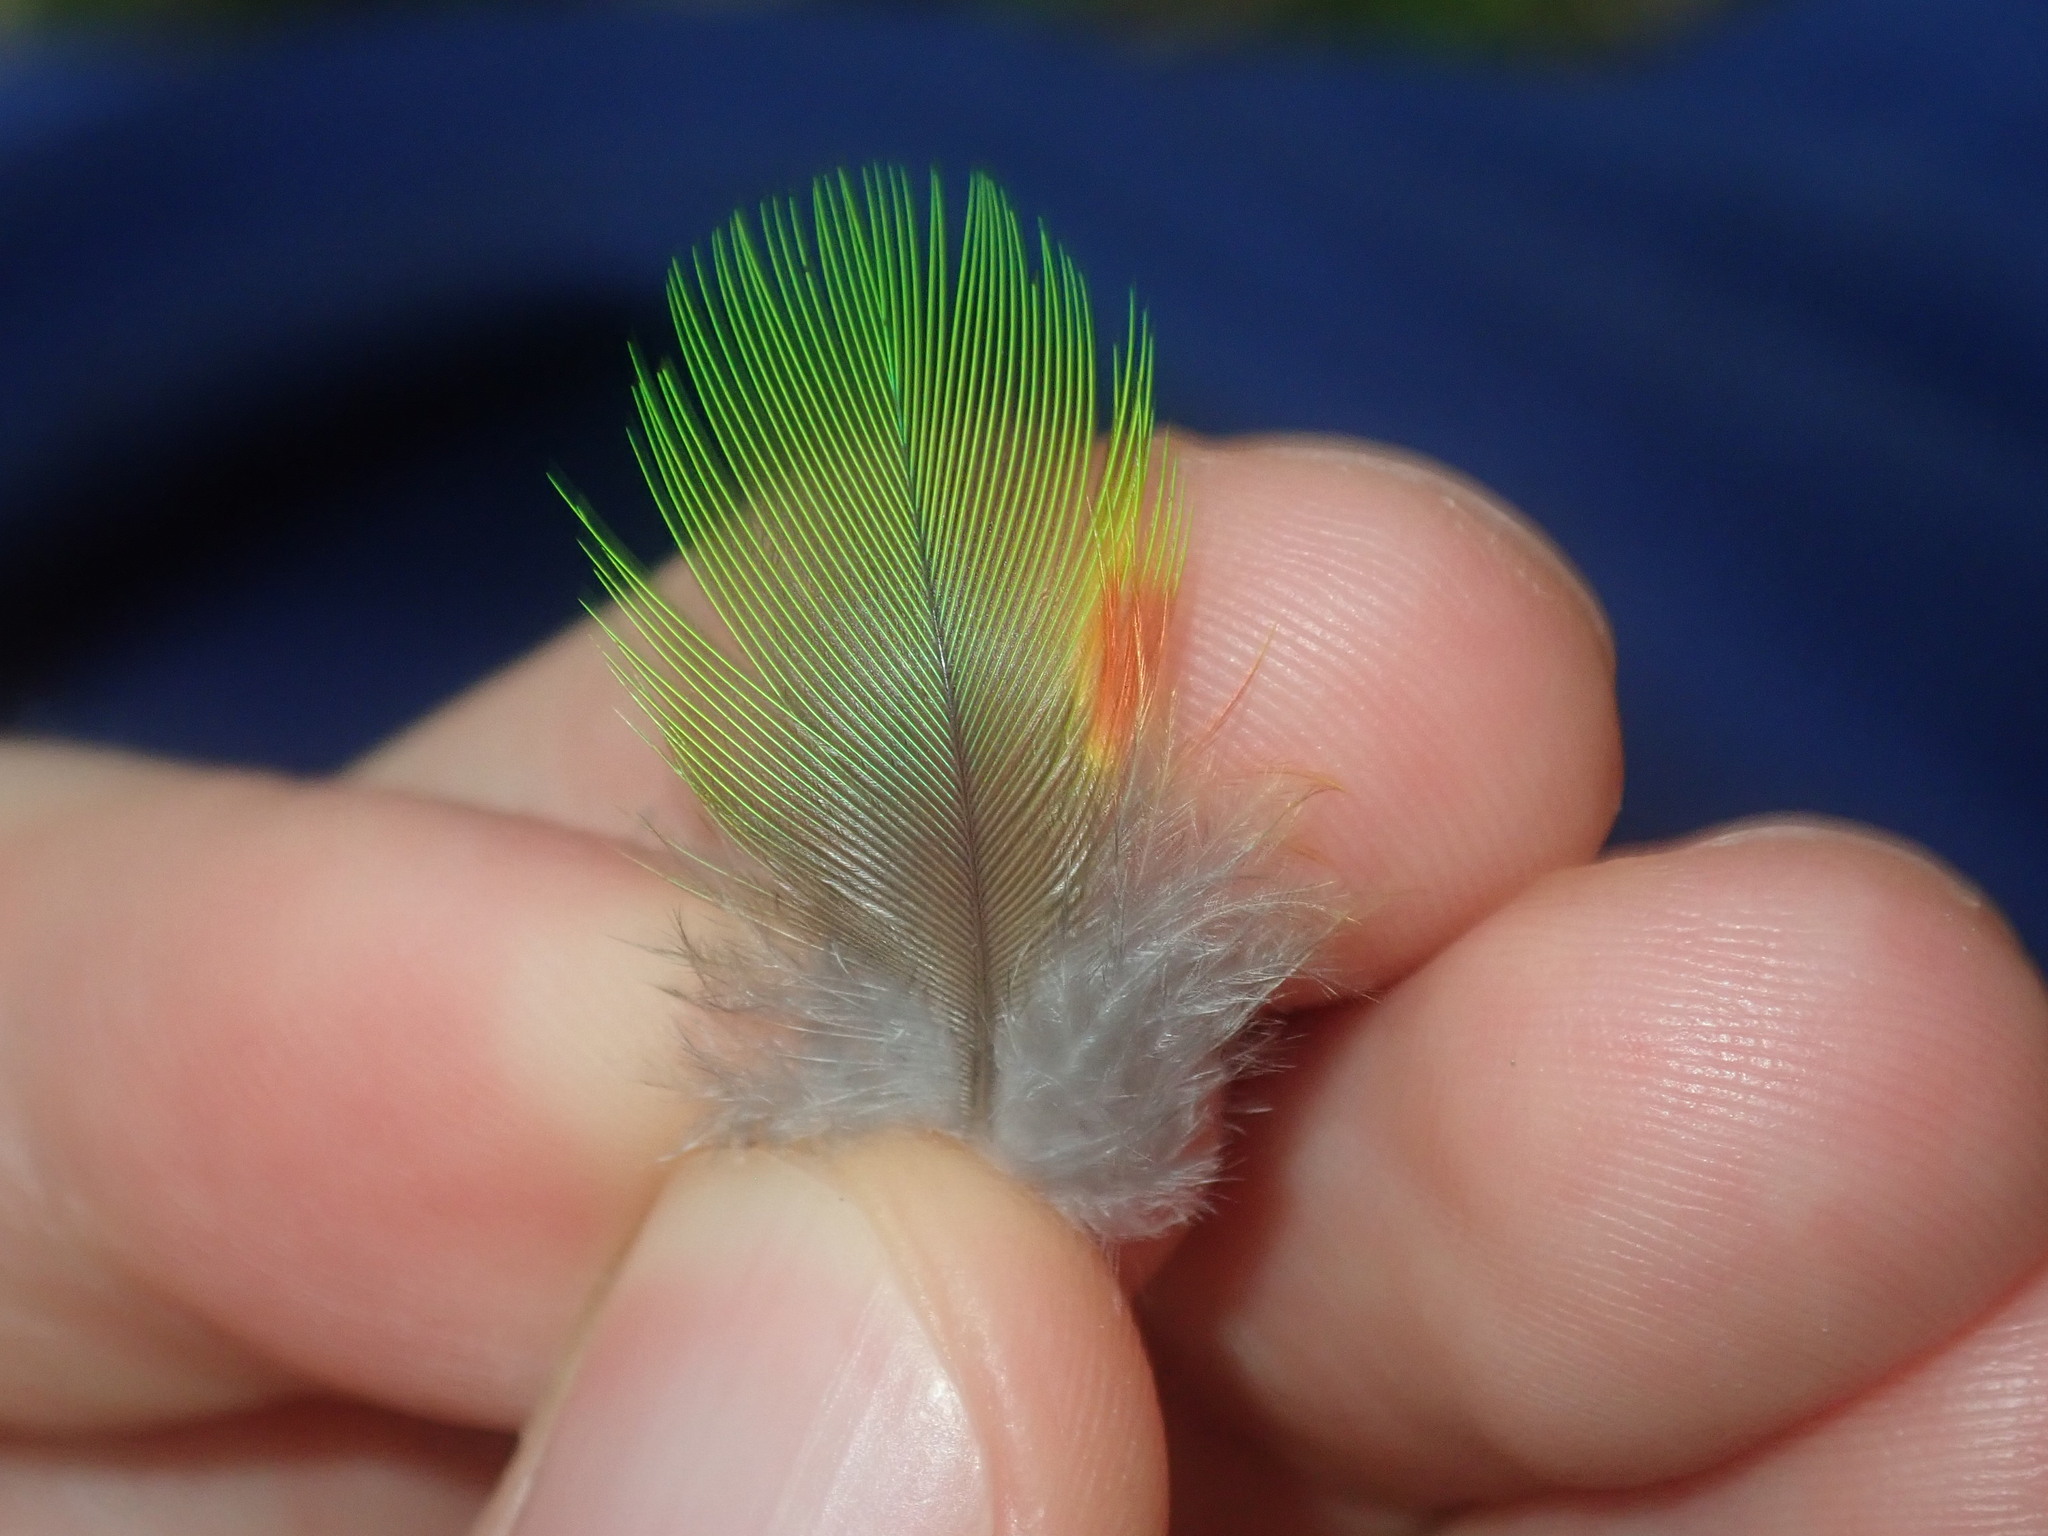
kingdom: Animalia
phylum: Chordata
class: Aves
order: Psittaciformes
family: Psittacidae
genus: Trichoglossus
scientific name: Trichoglossus haematodus
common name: Coconut lorikeet
